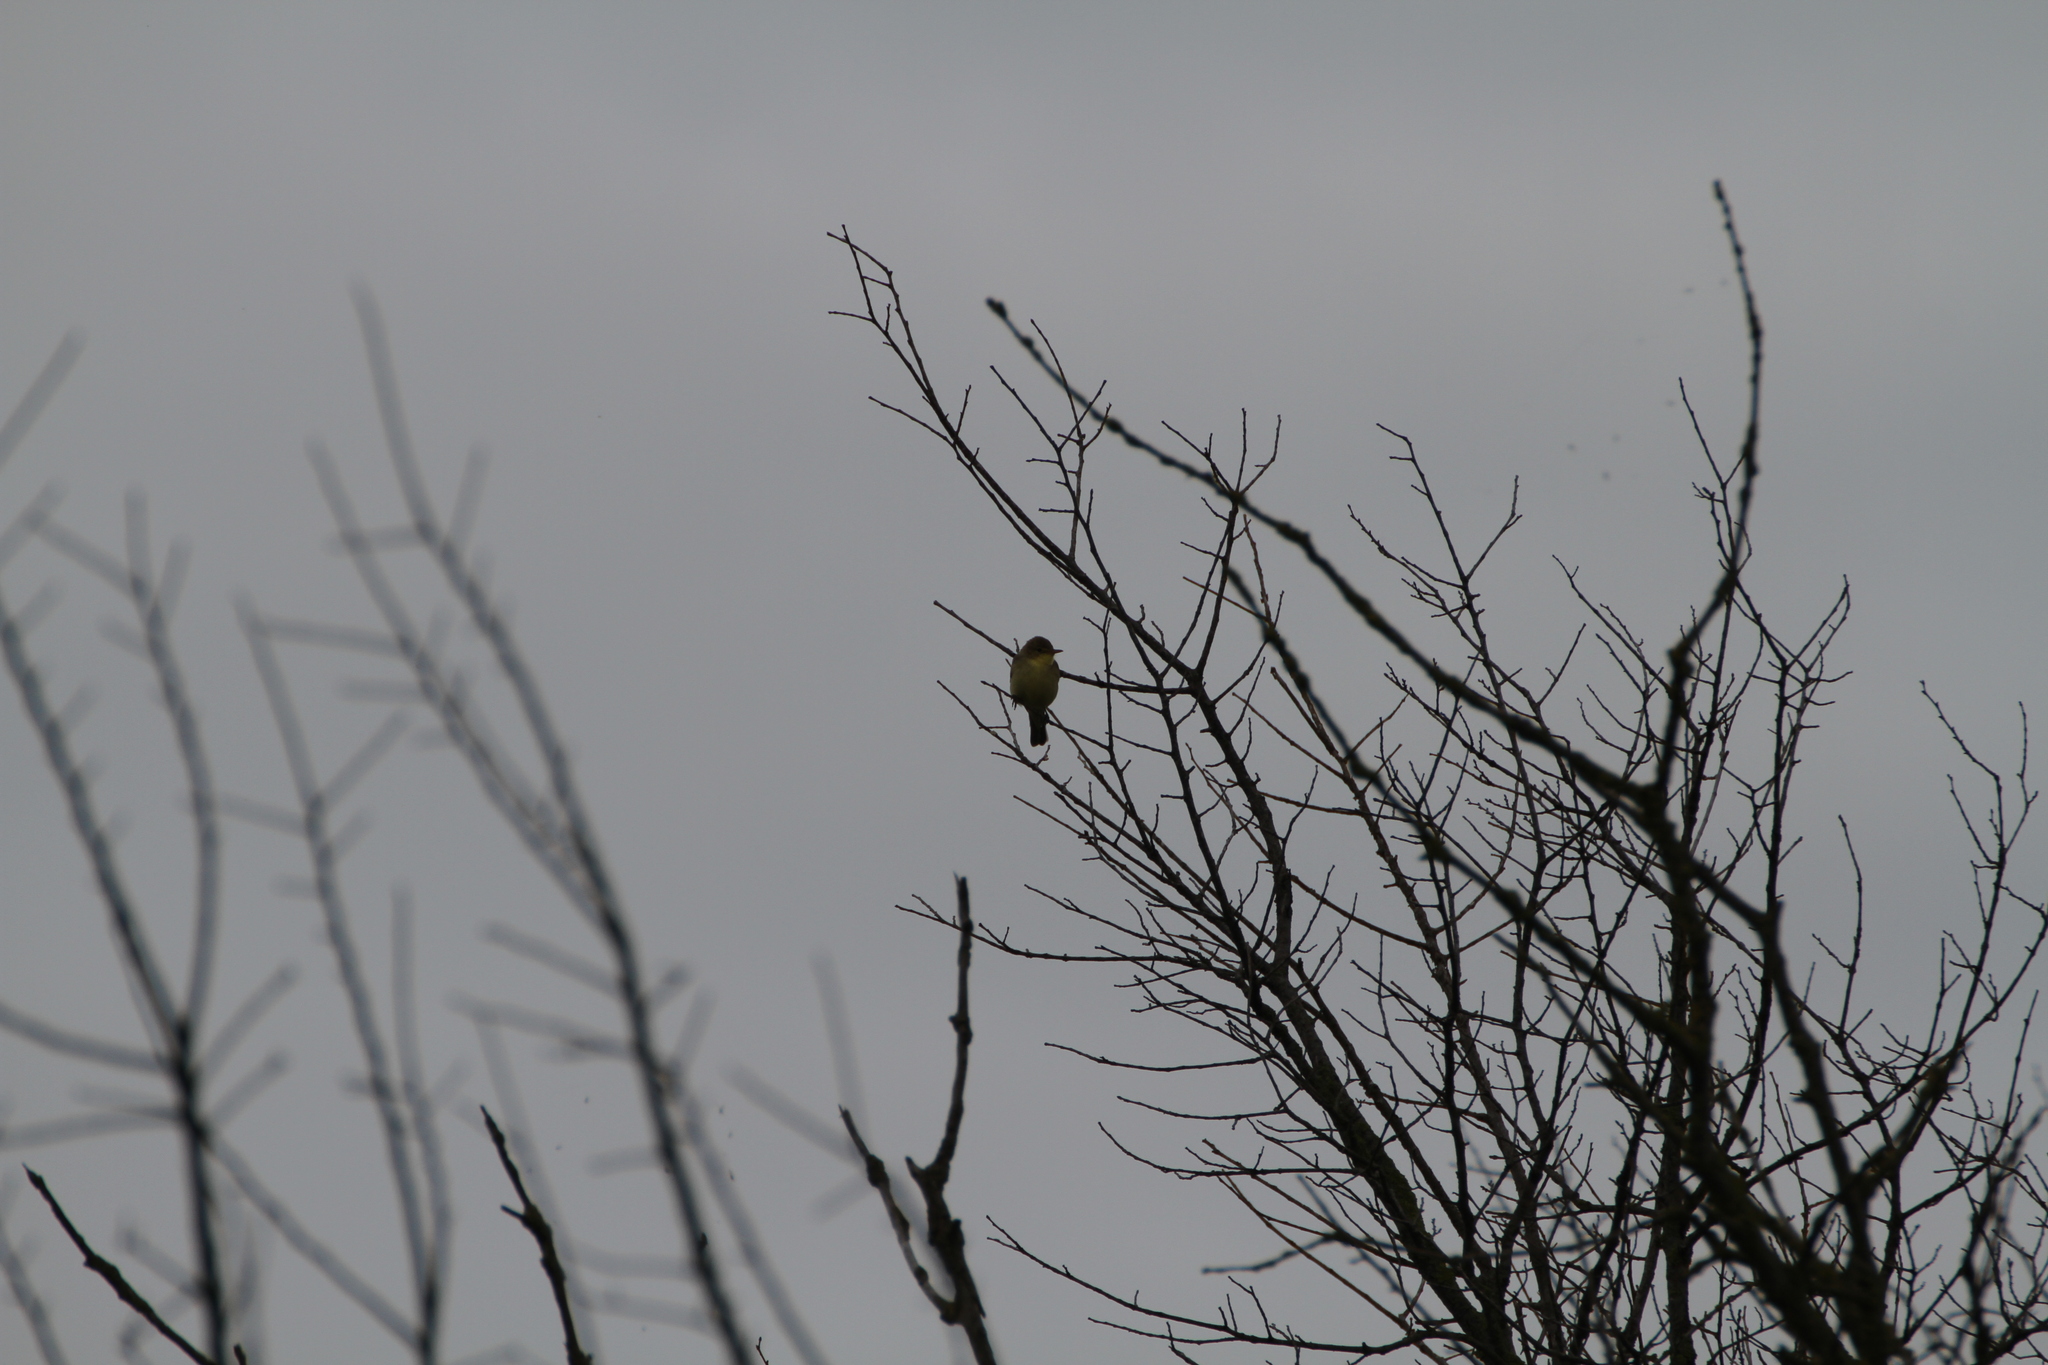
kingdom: Animalia
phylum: Chordata
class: Aves
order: Passeriformes
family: Acrocephalidae
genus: Hippolais
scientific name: Hippolais polyglotta
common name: Melodious warbler
